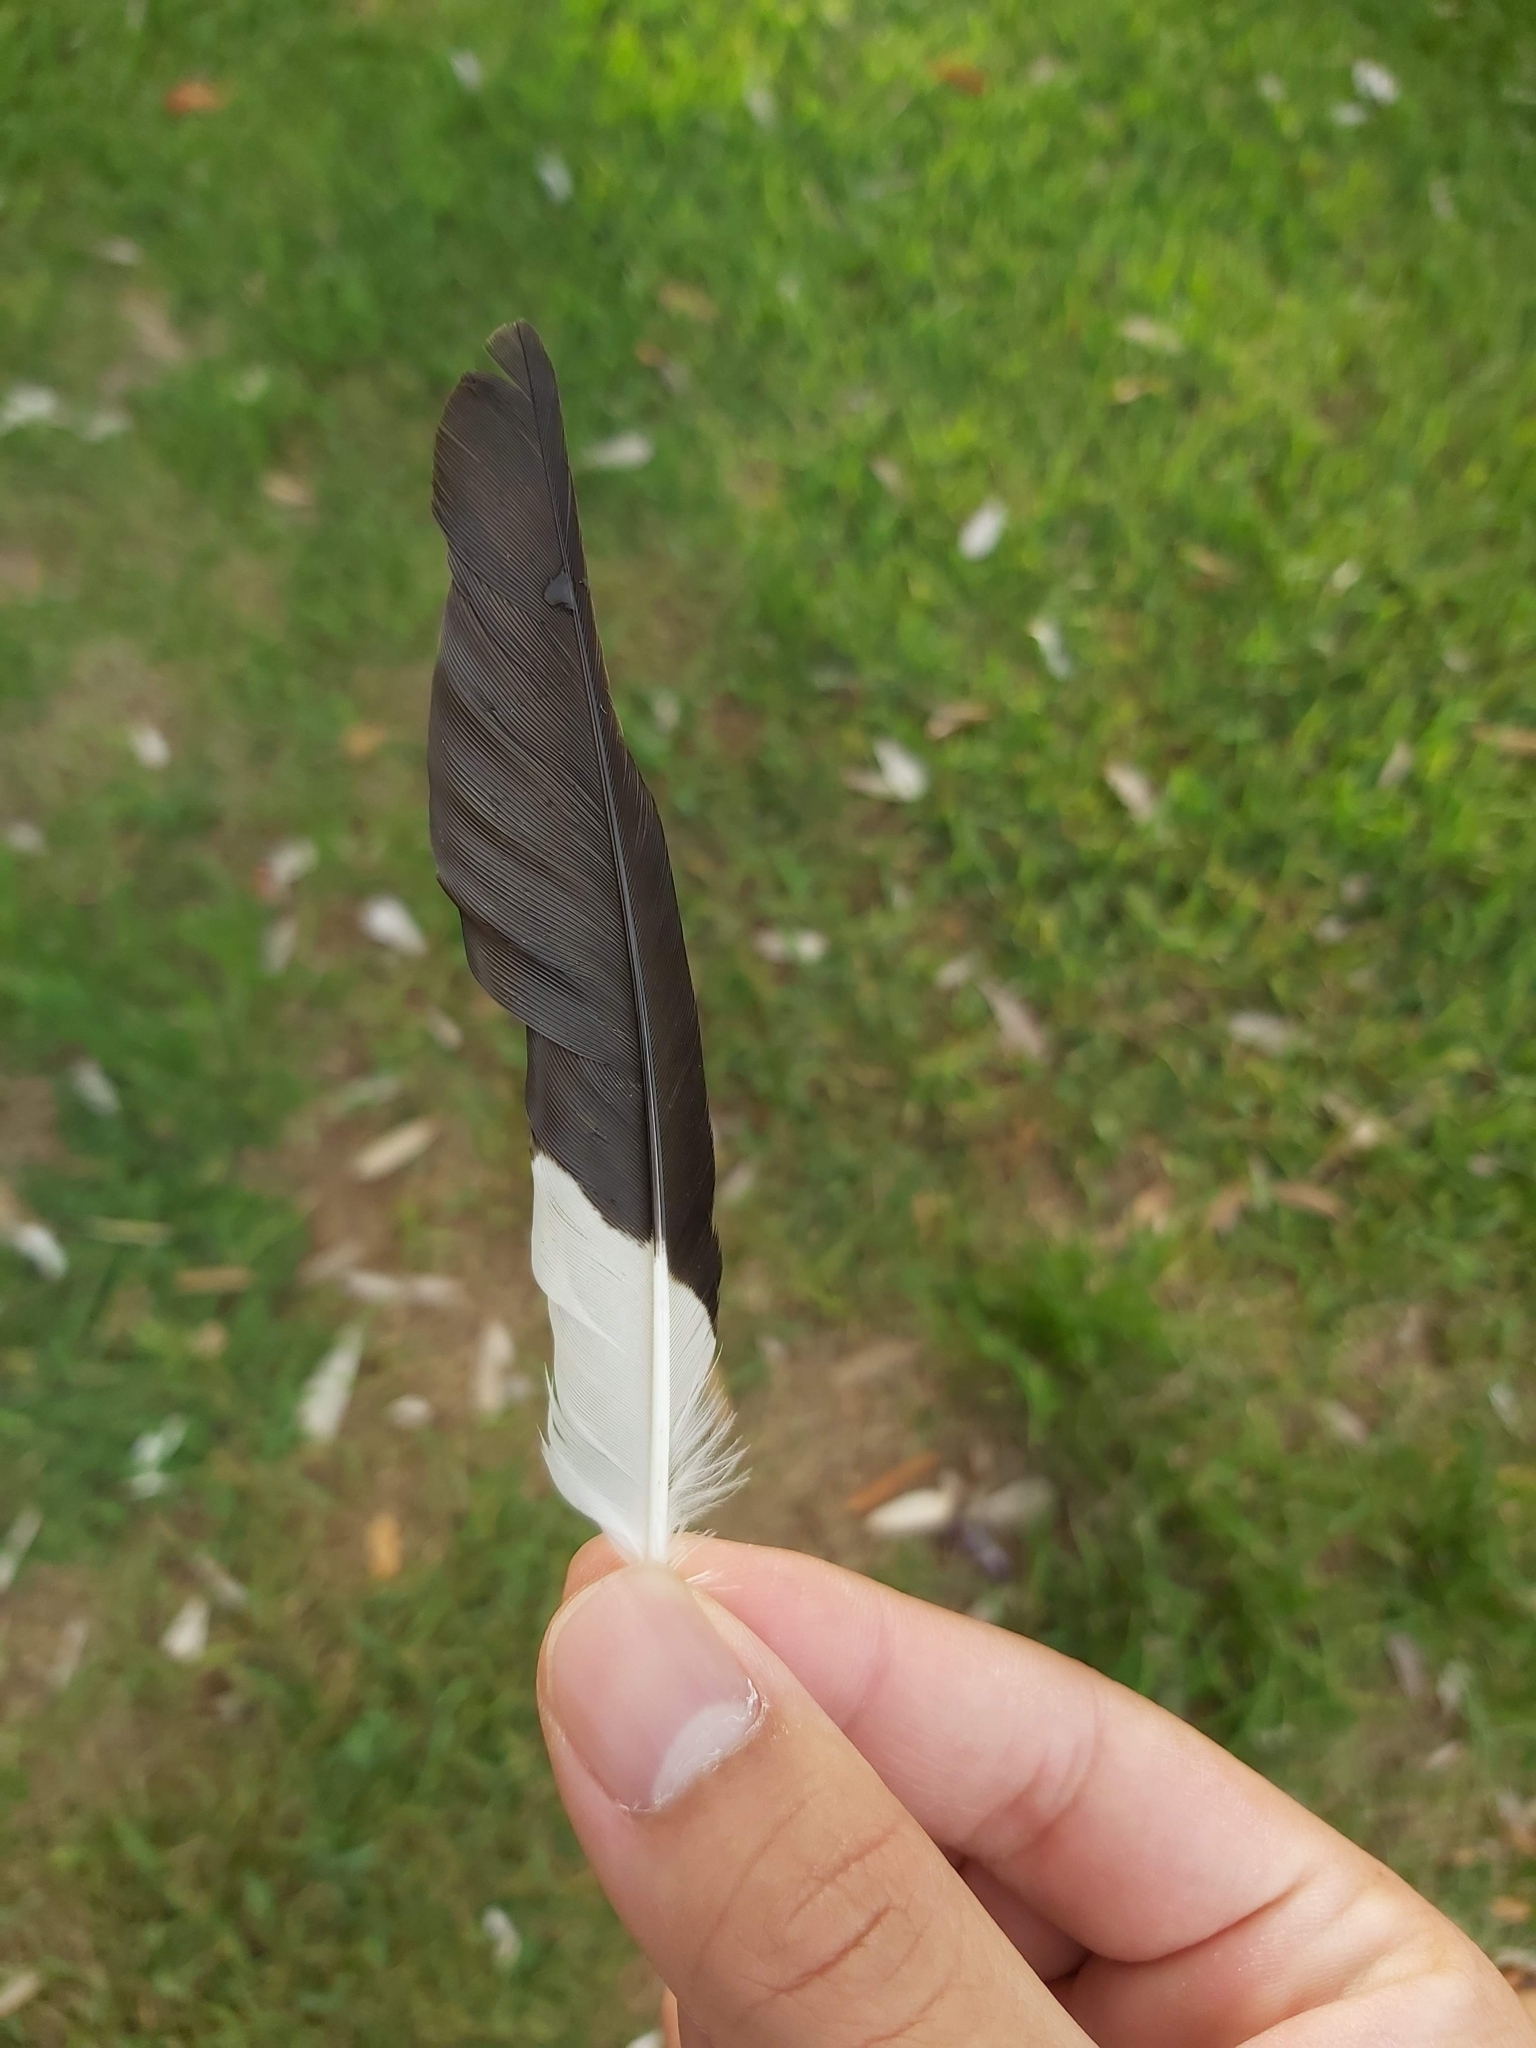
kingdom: Animalia
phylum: Chordata
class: Aves
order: Passeriformes
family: Sturnidae
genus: Acridotheres
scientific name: Acridotheres tristis
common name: Common myna
